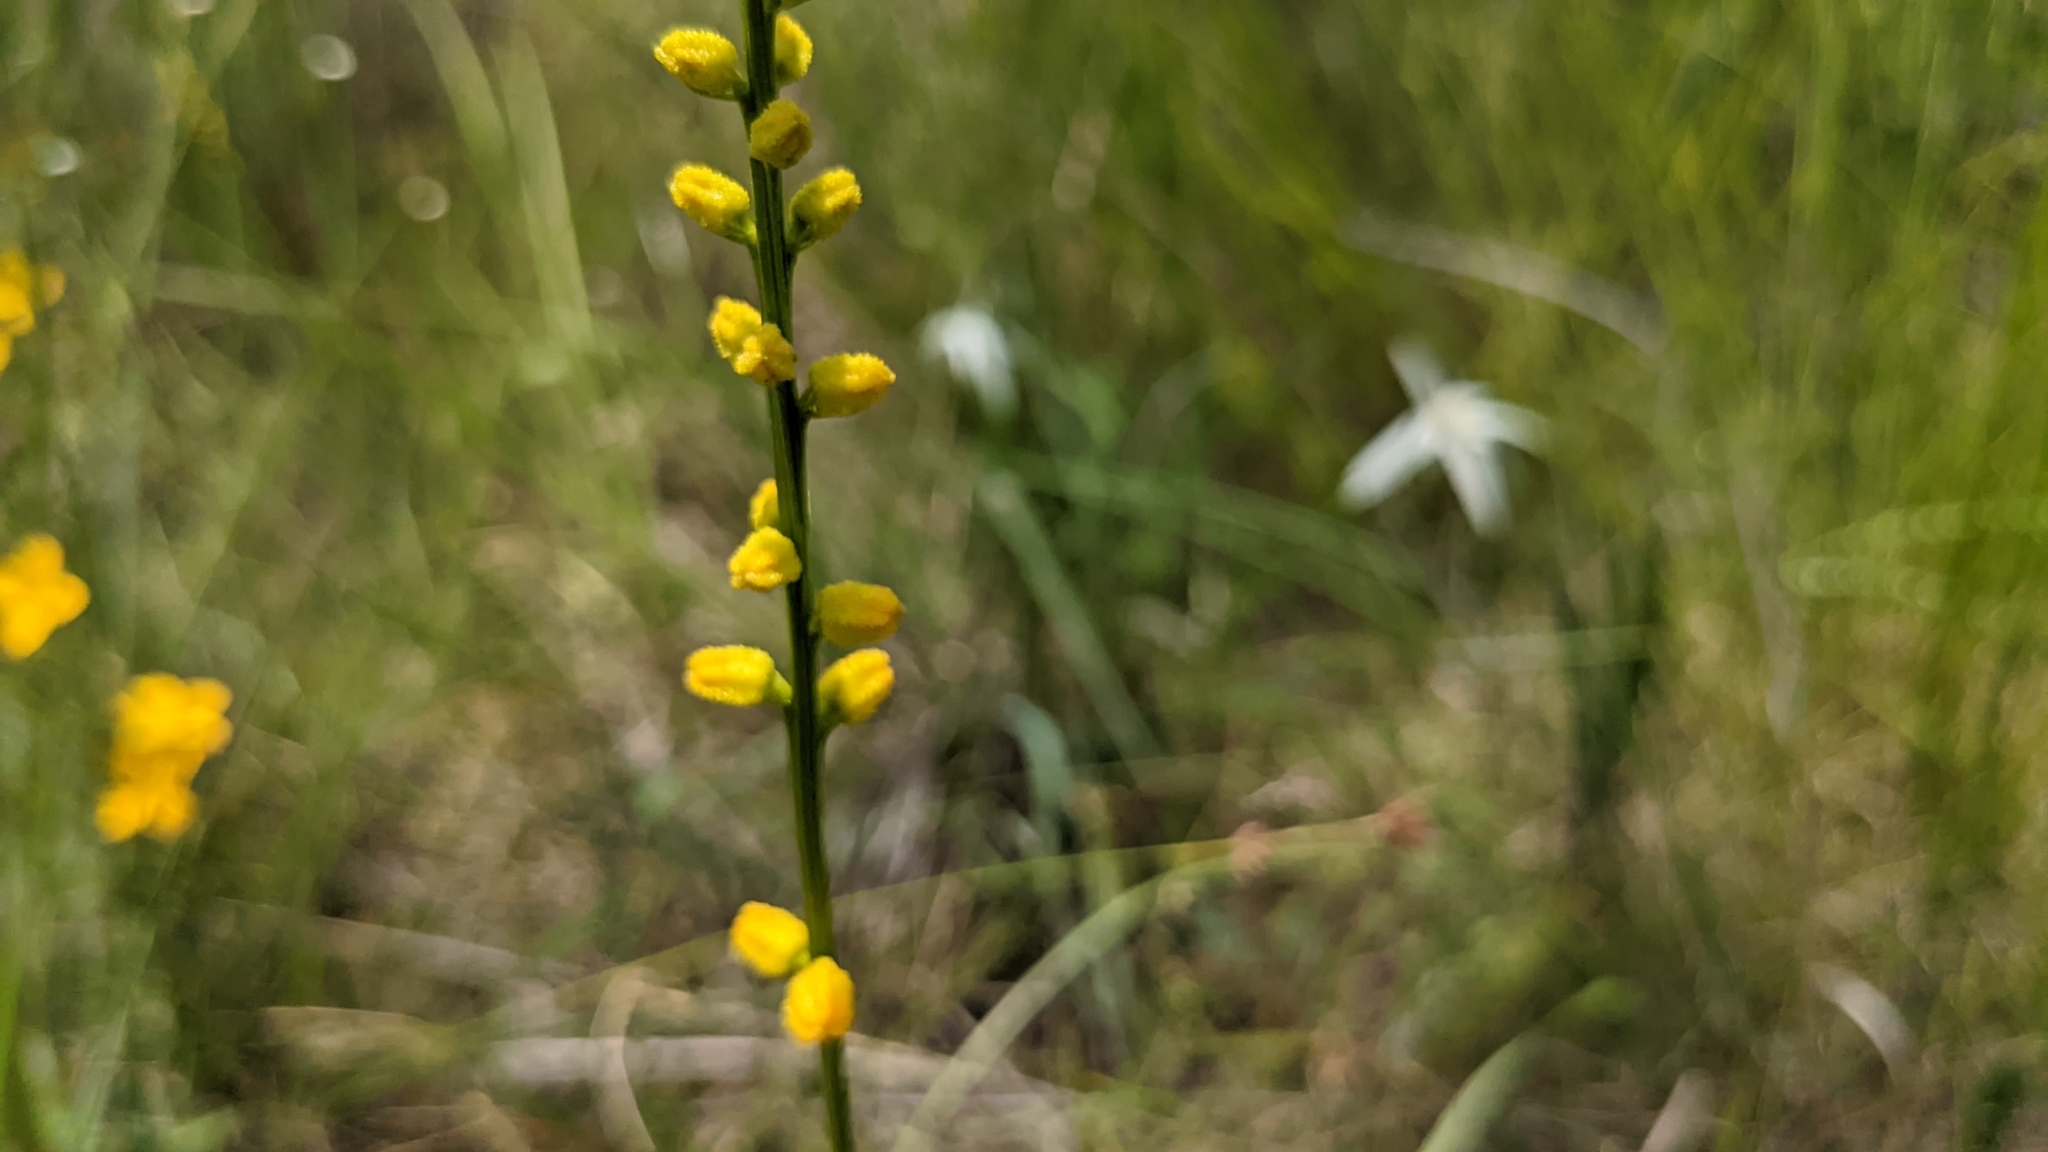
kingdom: Plantae
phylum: Tracheophyta
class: Liliopsida
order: Dioscoreales
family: Nartheciaceae
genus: Aletris
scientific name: Aletris aurea
